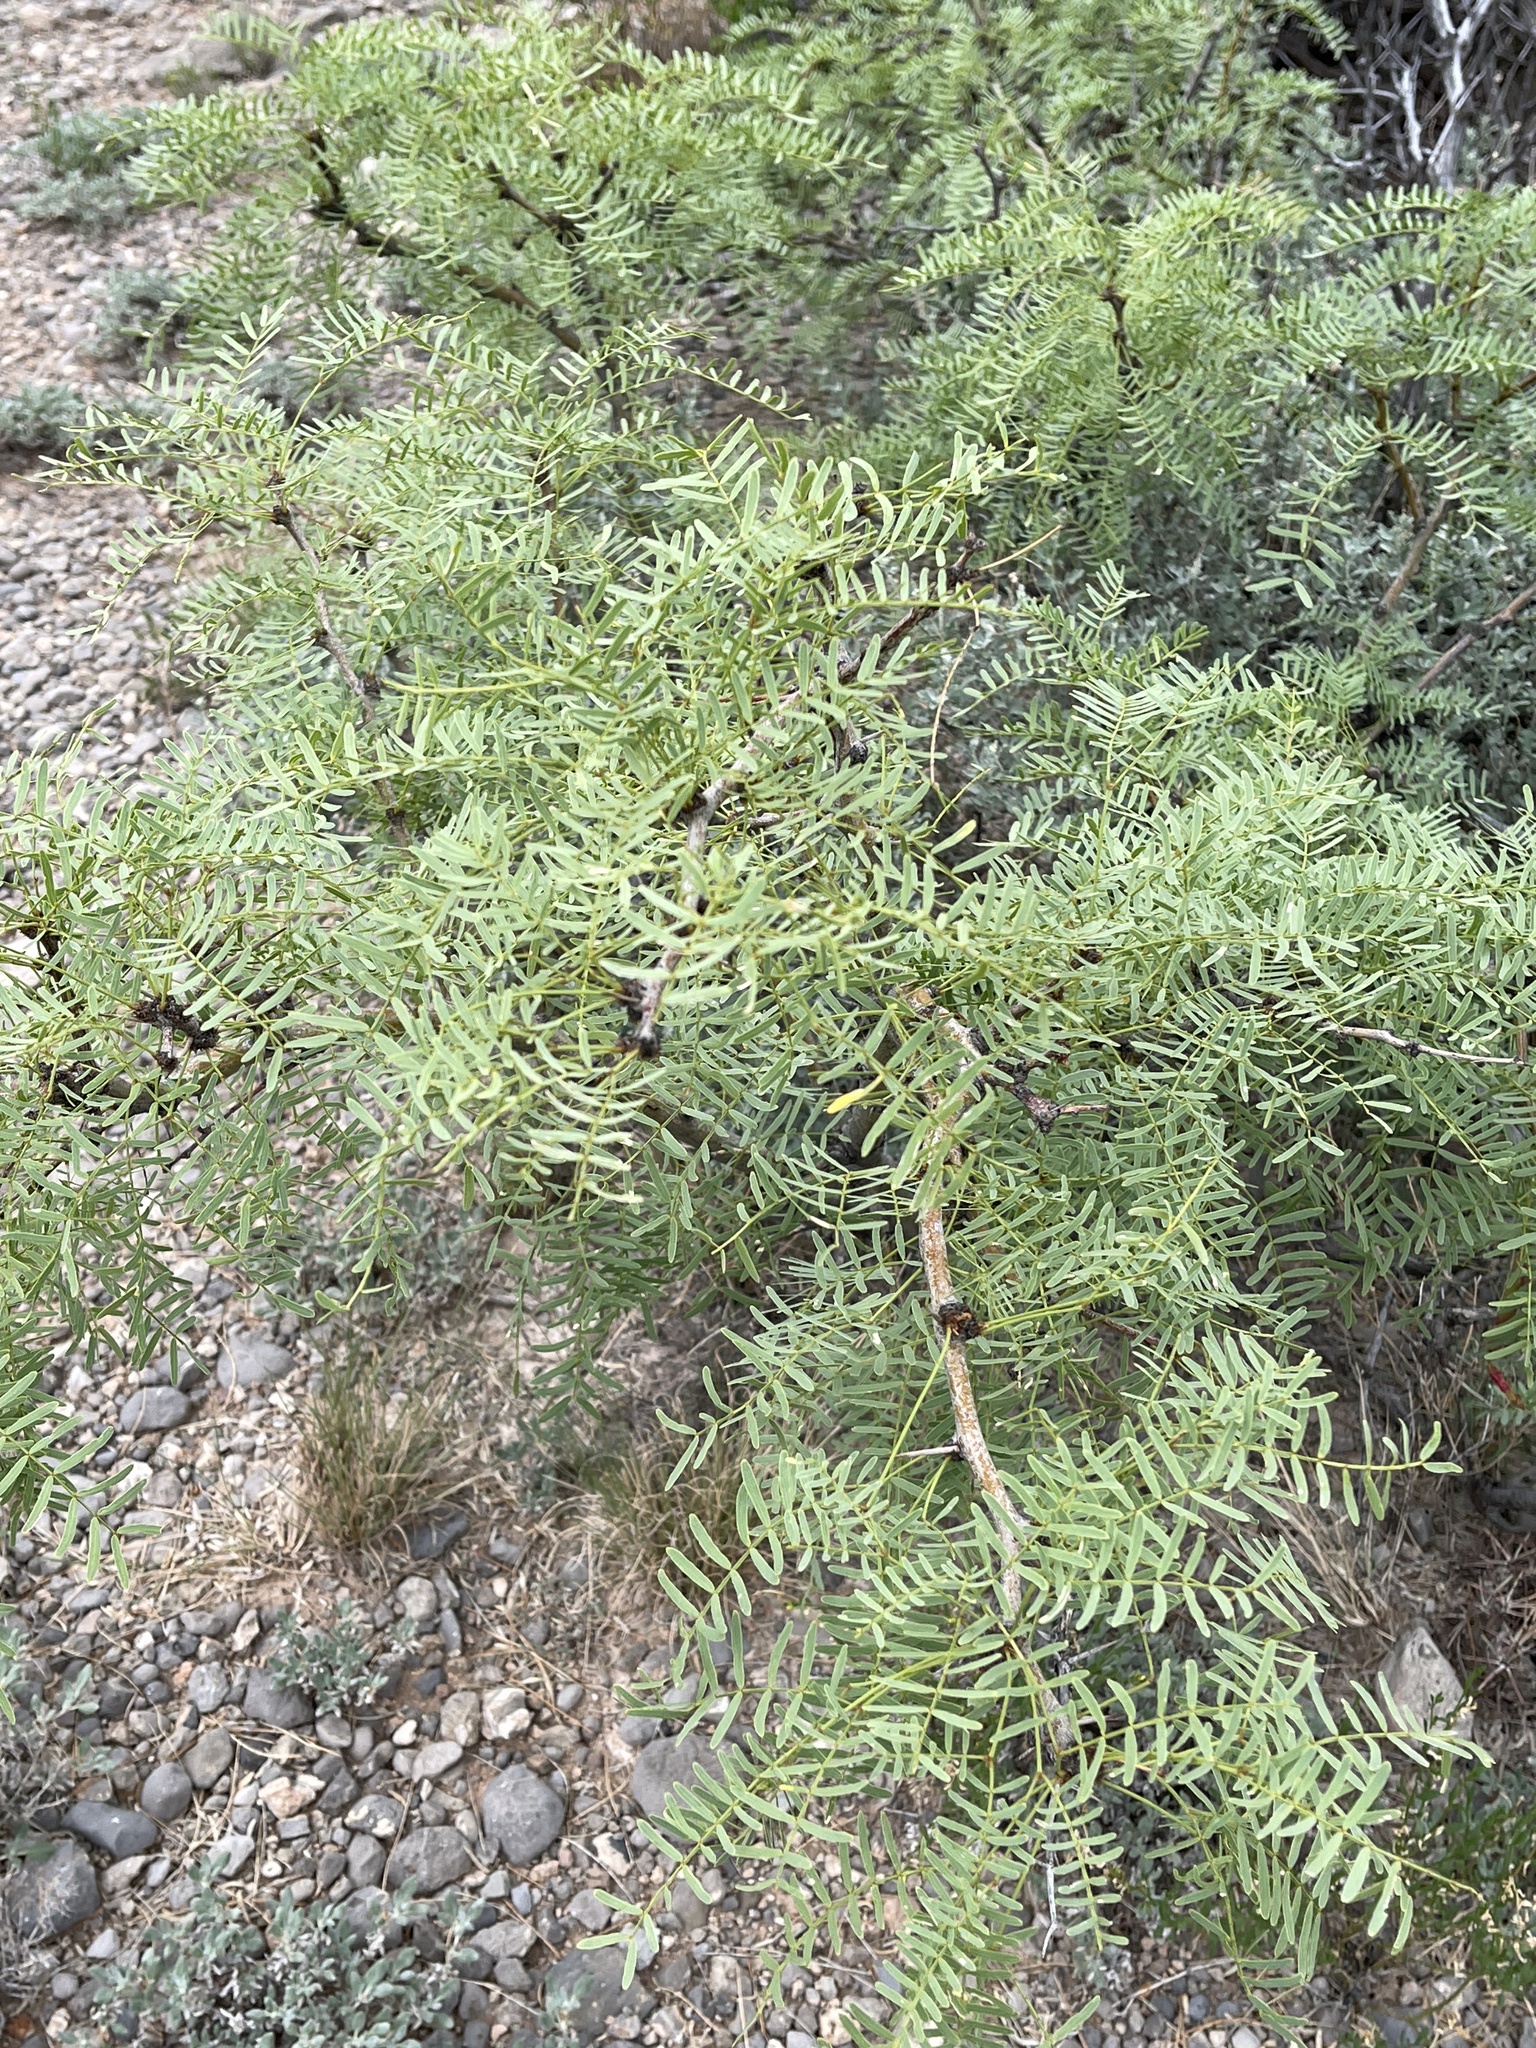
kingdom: Plantae
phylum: Tracheophyta
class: Magnoliopsida
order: Fabales
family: Fabaceae
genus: Prosopis
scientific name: Prosopis glandulosa
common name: Honey mesquite
